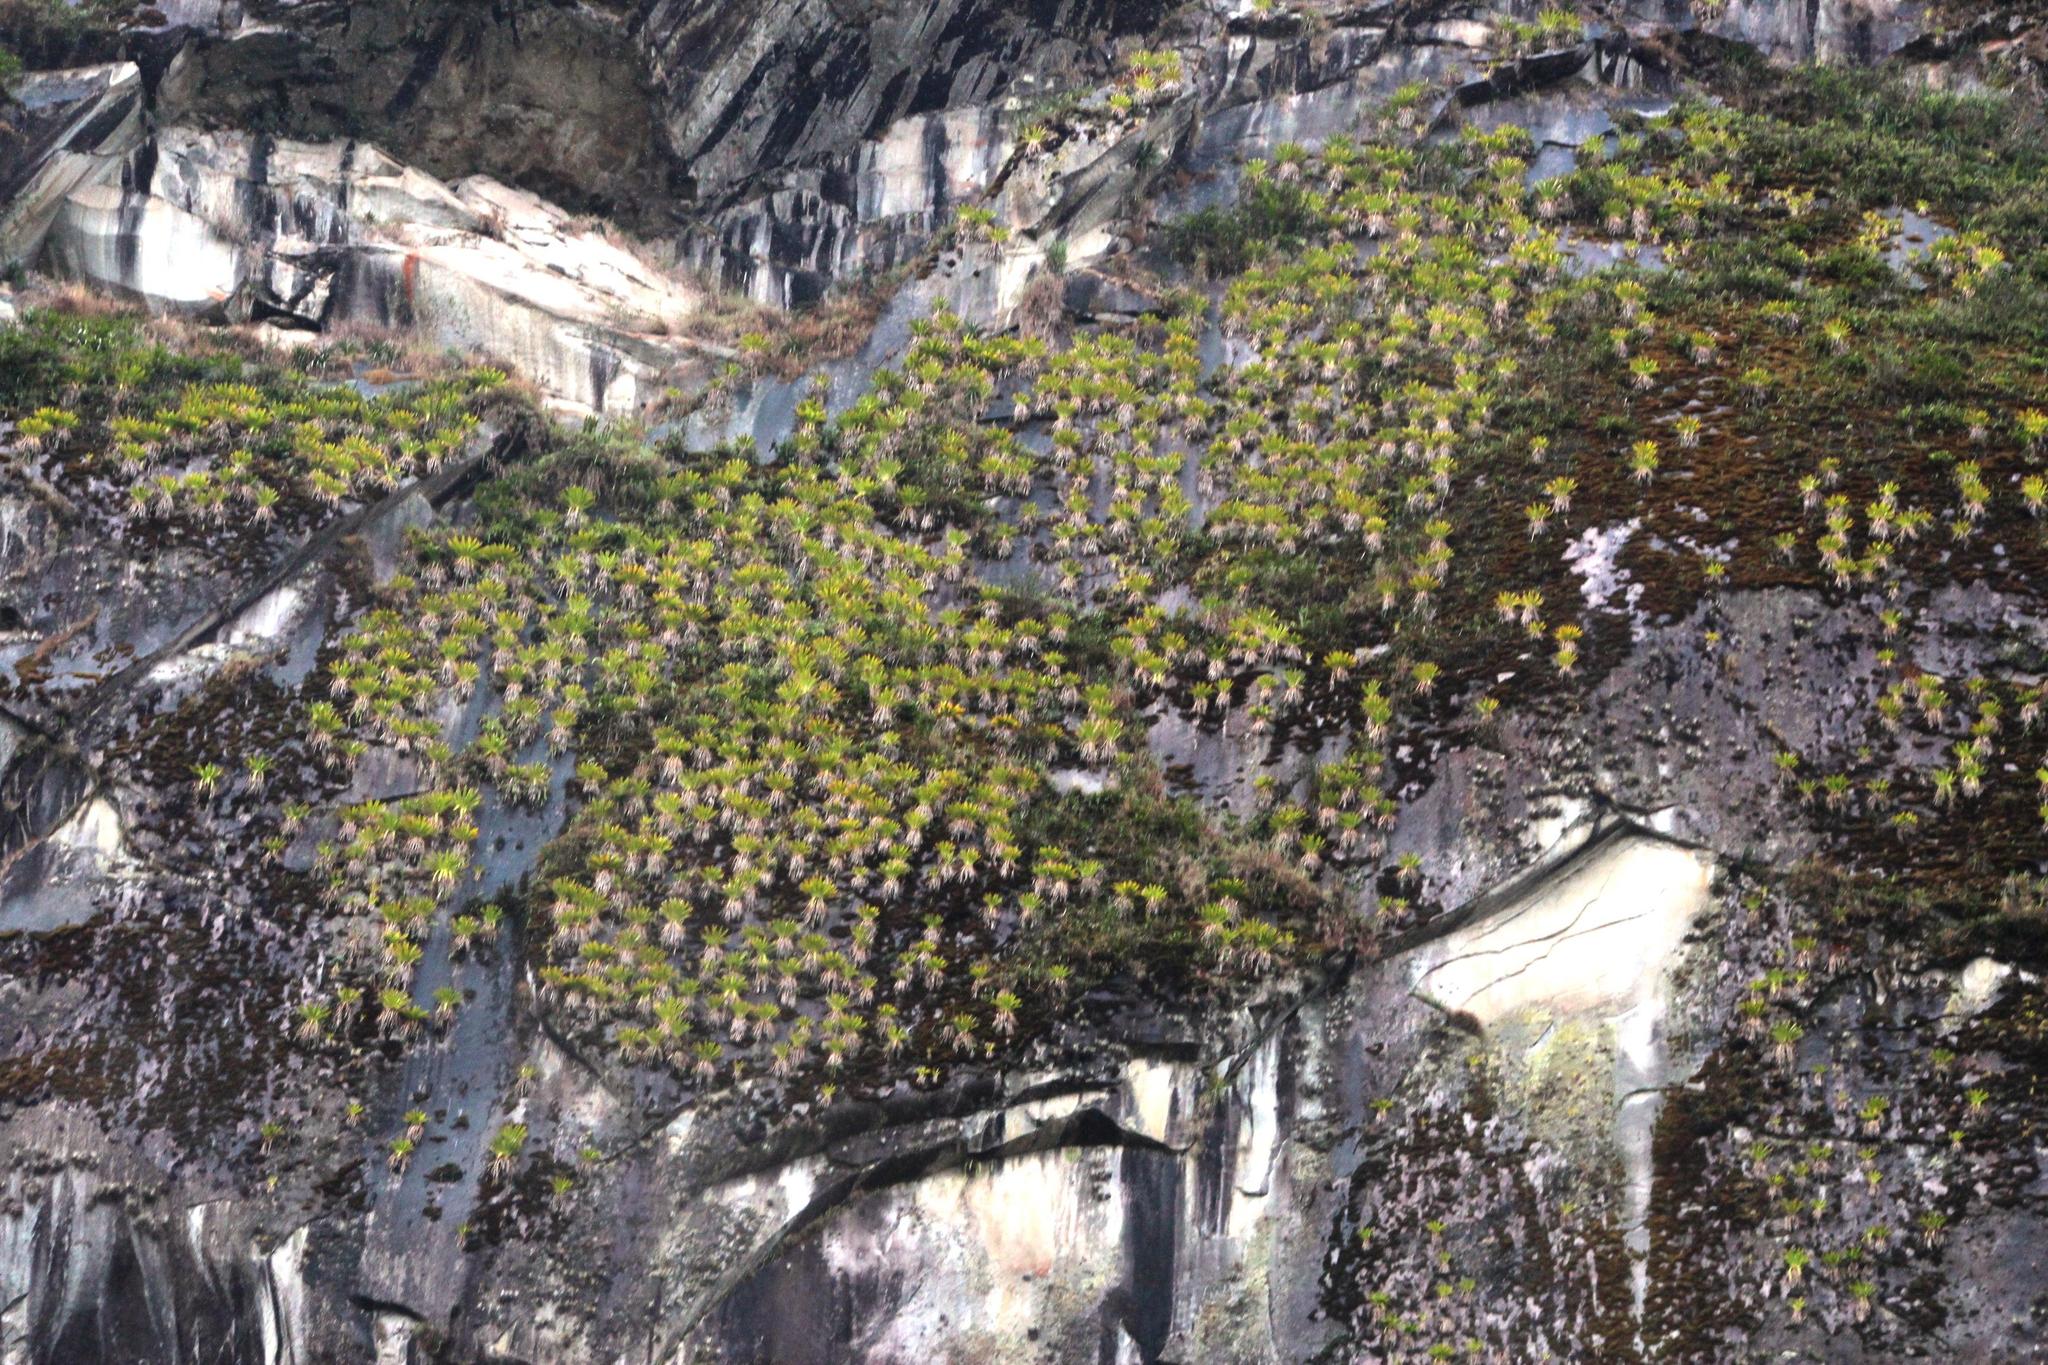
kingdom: Plantae
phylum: Tracheophyta
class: Liliopsida
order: Poales
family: Bromeliaceae
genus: Tillandsia
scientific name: Tillandsia machupicchuensis
